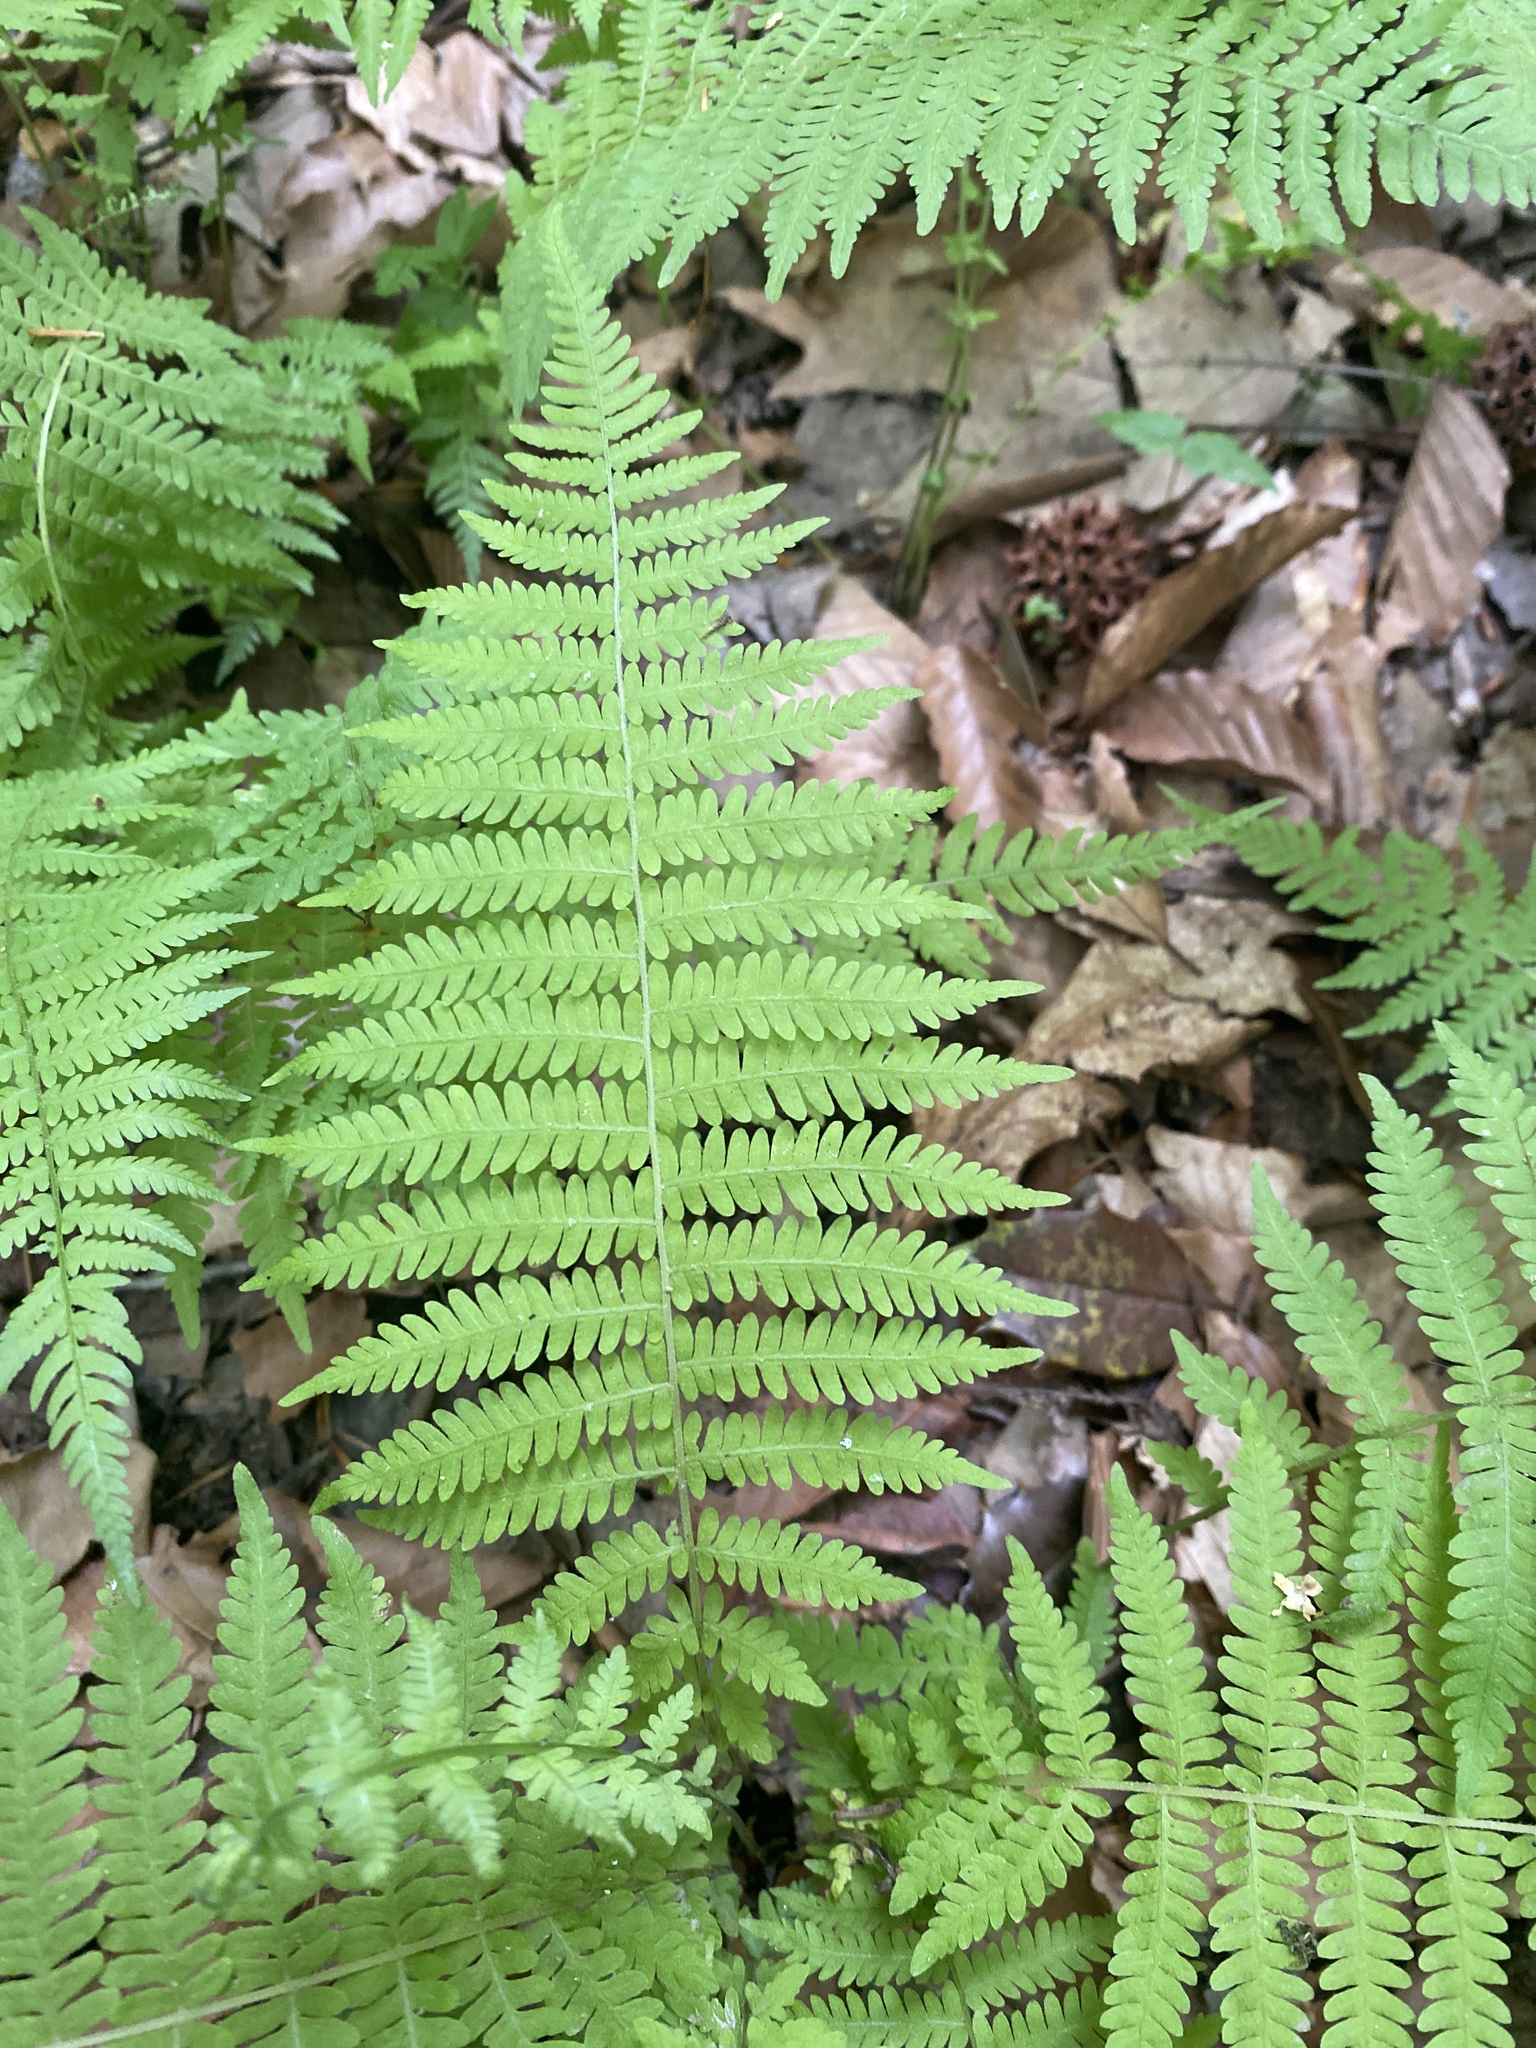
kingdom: Plantae
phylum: Tracheophyta
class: Polypodiopsida
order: Polypodiales
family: Thelypteridaceae
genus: Amauropelta
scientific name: Amauropelta noveboracensis
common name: New york fern
